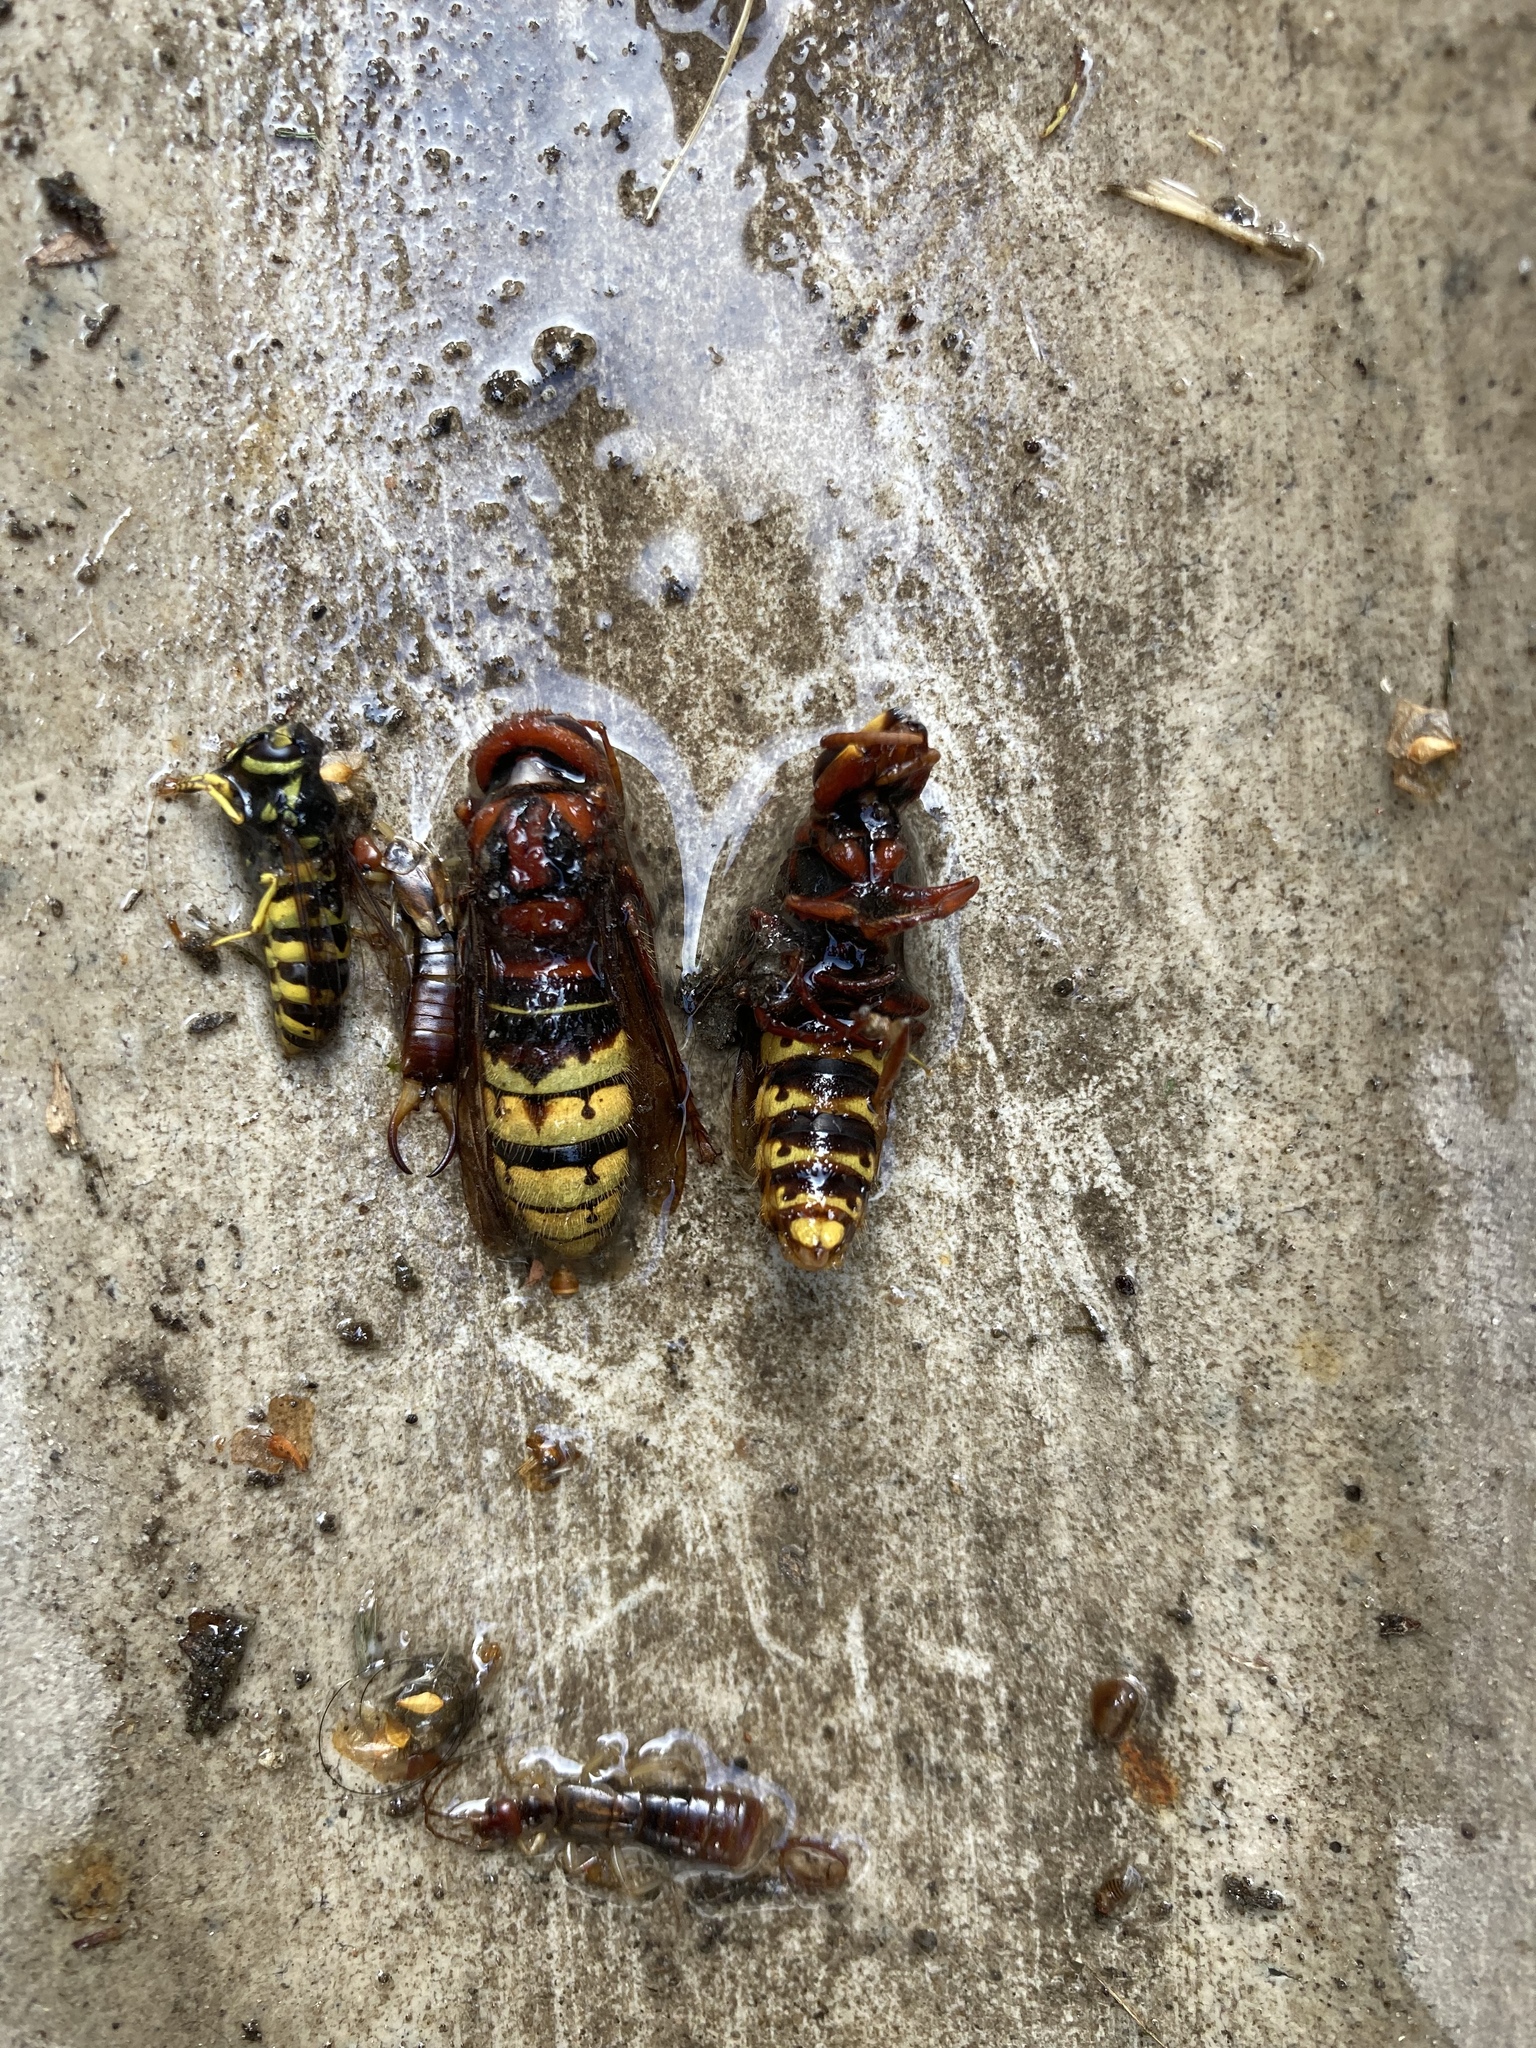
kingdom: Animalia
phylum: Arthropoda
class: Insecta
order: Hymenoptera
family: Vespidae
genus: Vespa
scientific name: Vespa crabro
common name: Hornet
